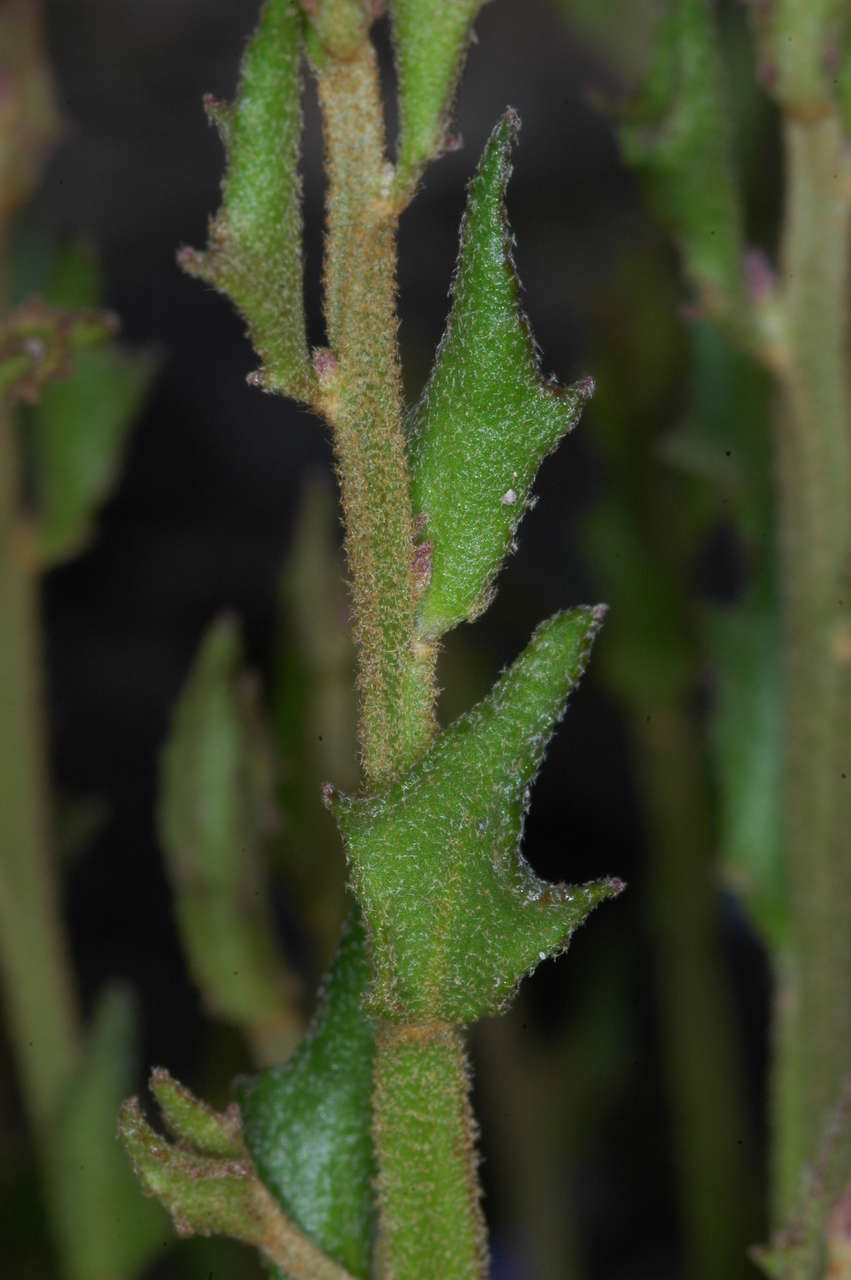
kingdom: Plantae
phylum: Tracheophyta
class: Magnoliopsida
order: Asterales
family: Goodeniaceae
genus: Dampiera
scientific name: Dampiera stricta
